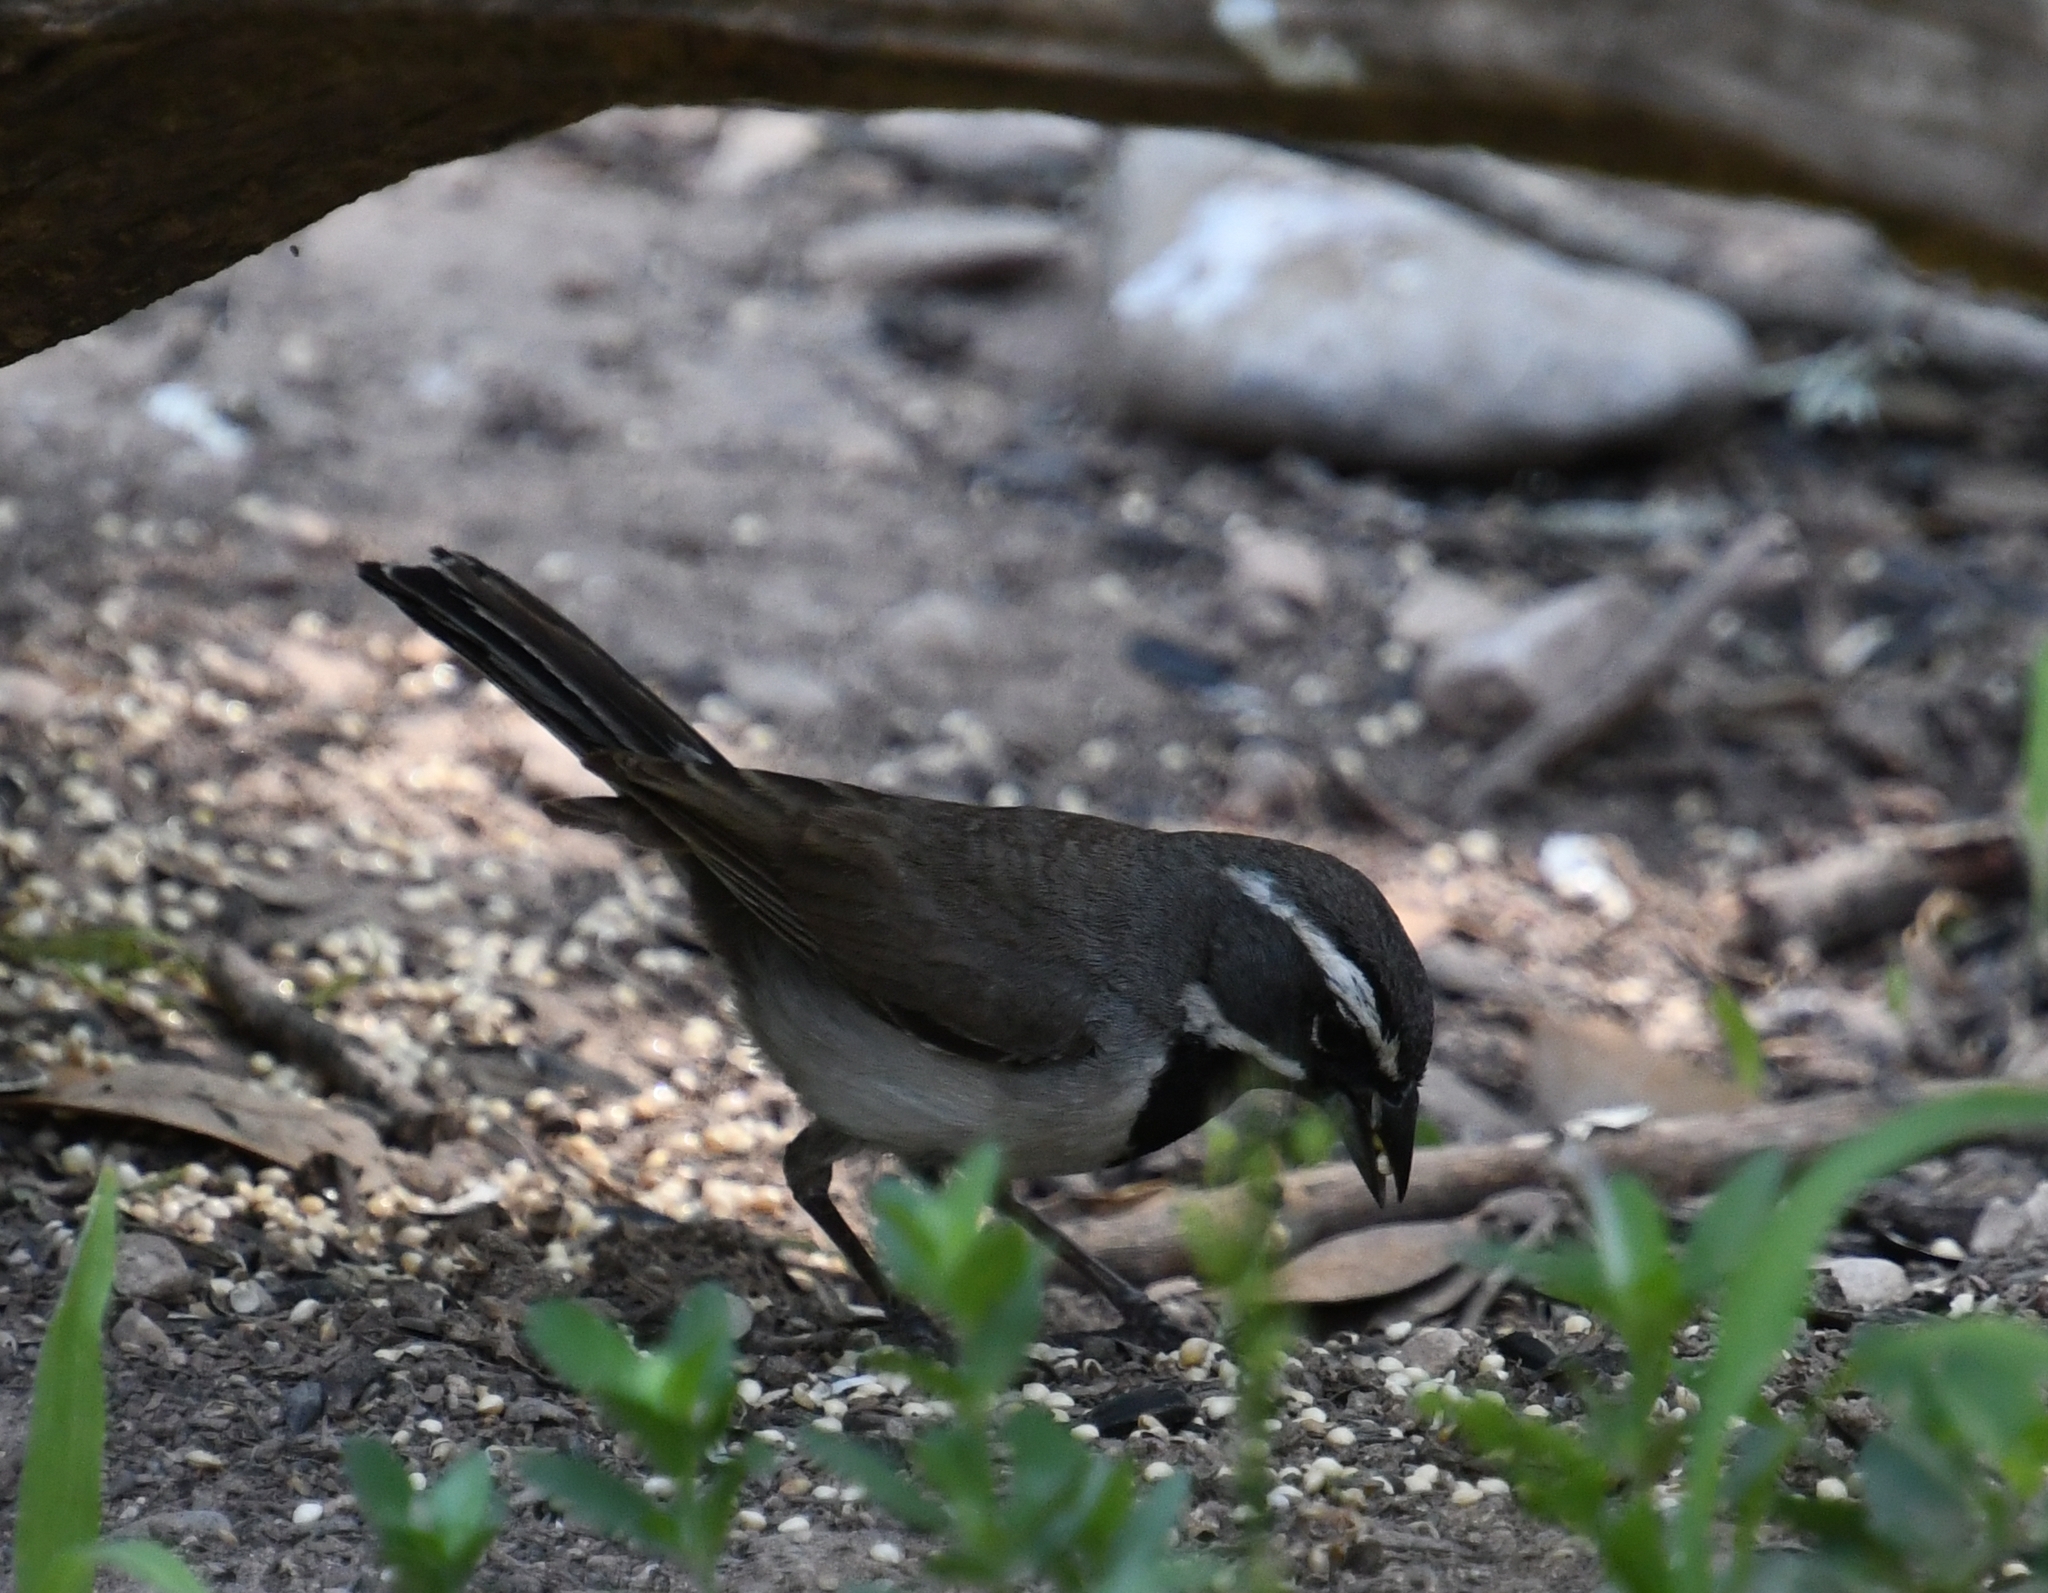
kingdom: Animalia
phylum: Chordata
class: Aves
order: Passeriformes
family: Passerellidae
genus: Amphispiza
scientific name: Amphispiza bilineata
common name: Black-throated sparrow
